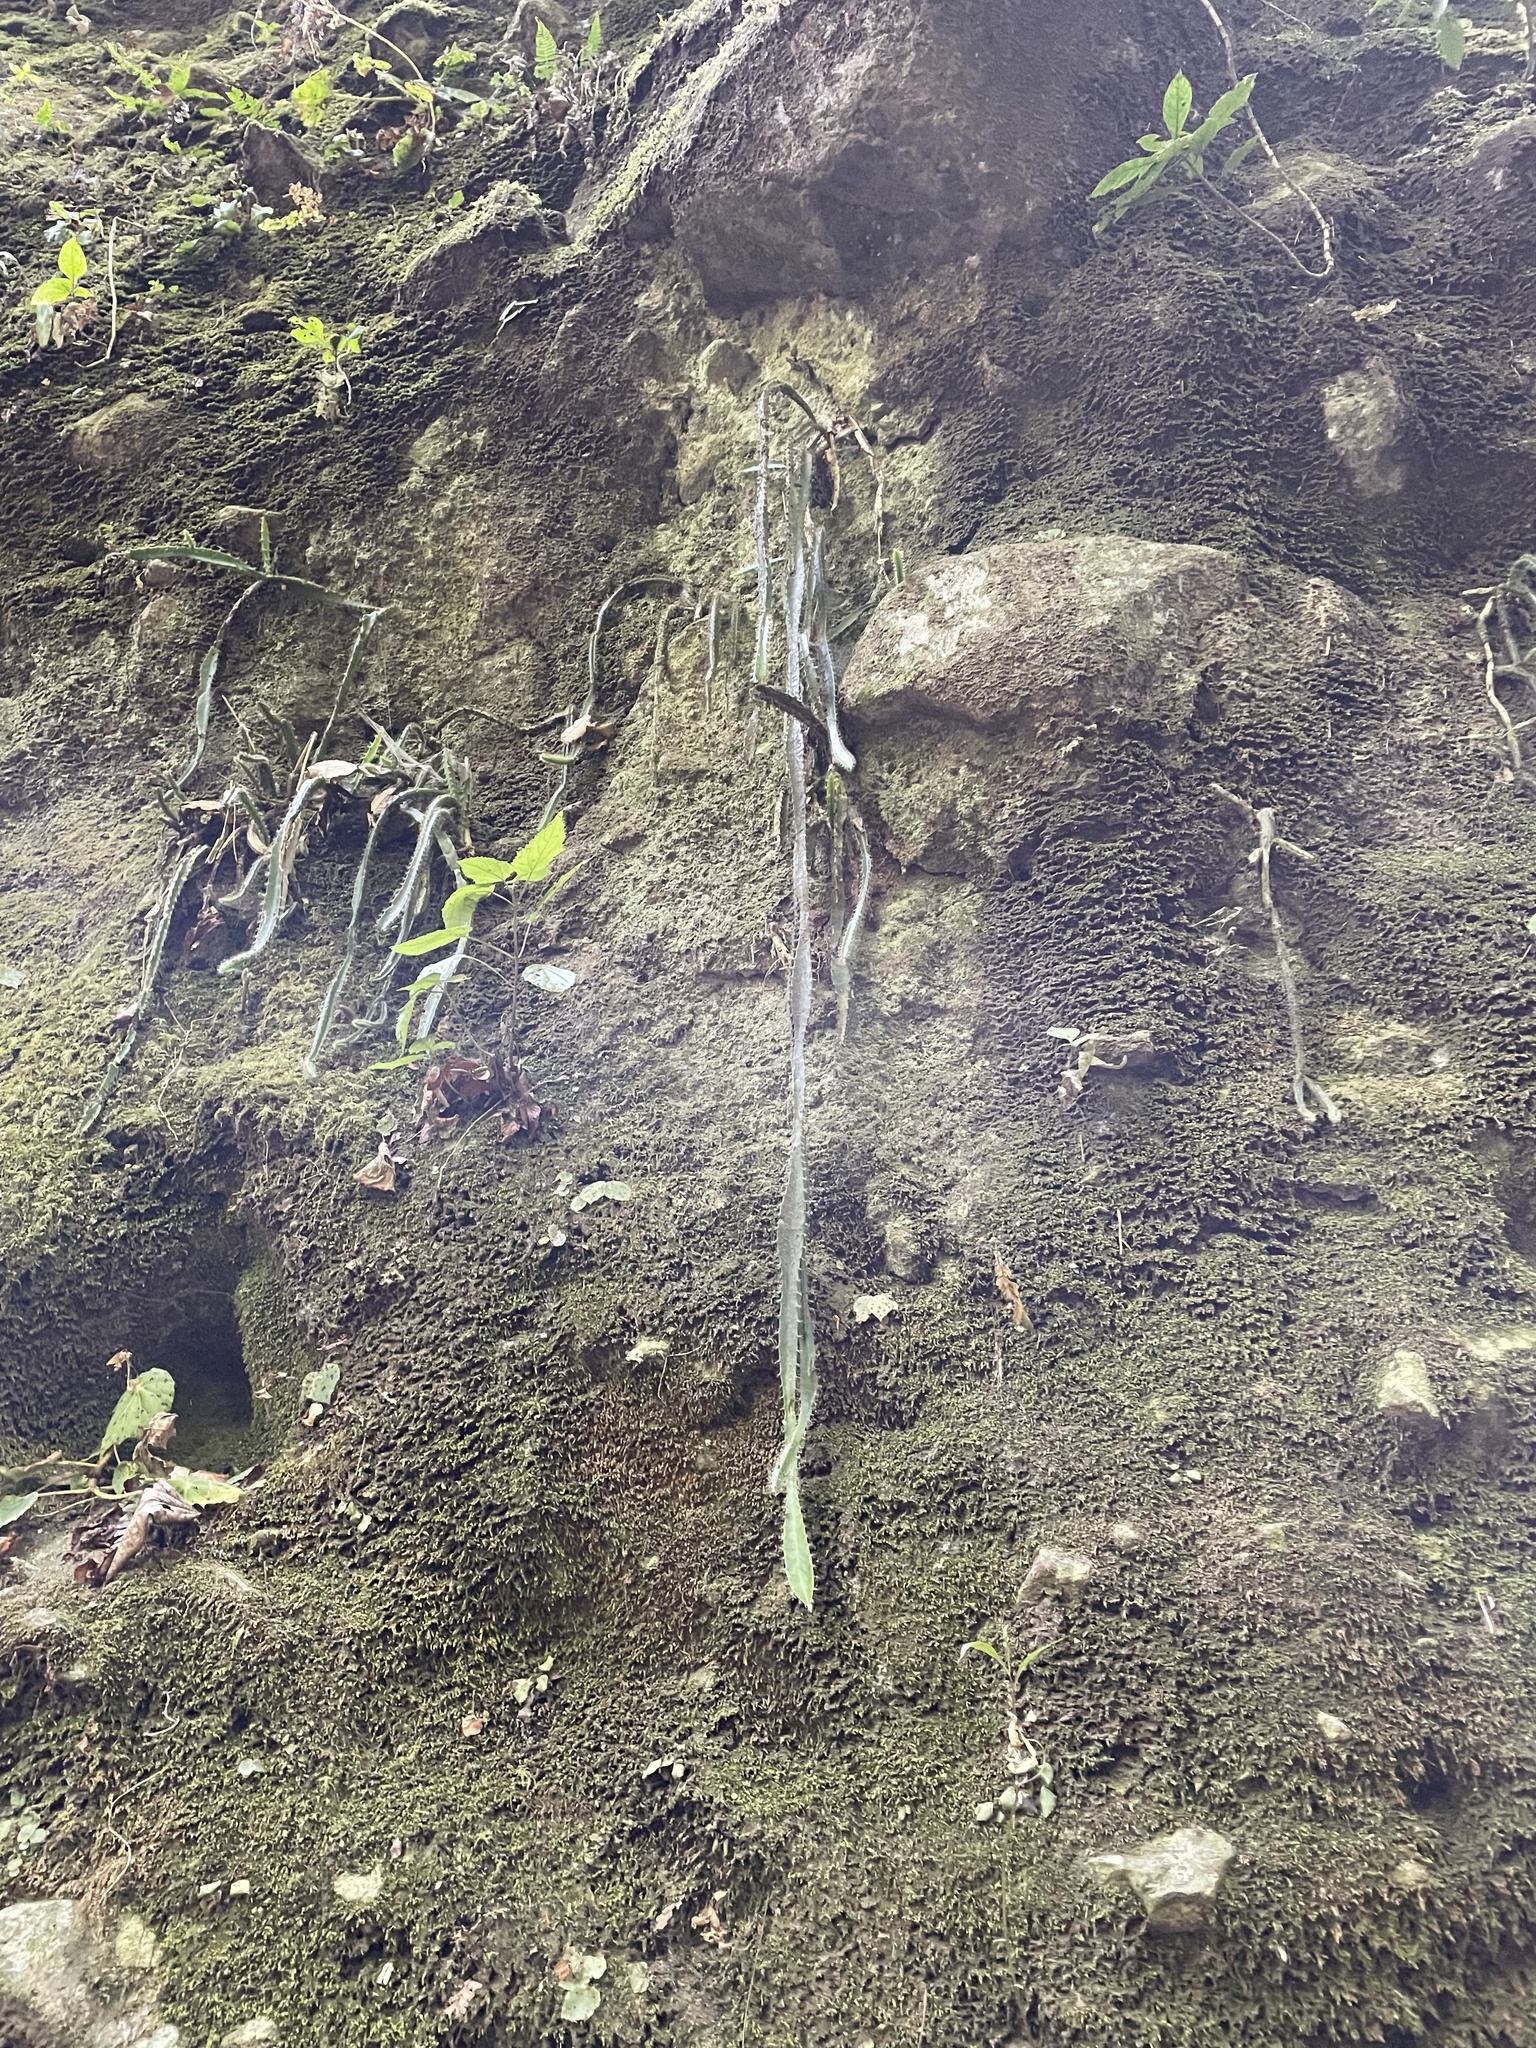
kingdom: Plantae
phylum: Tracheophyta
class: Magnoliopsida
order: Caryophyllales
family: Cactaceae
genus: Disocactus
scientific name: Disocactus speciosus
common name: Sun cereus
